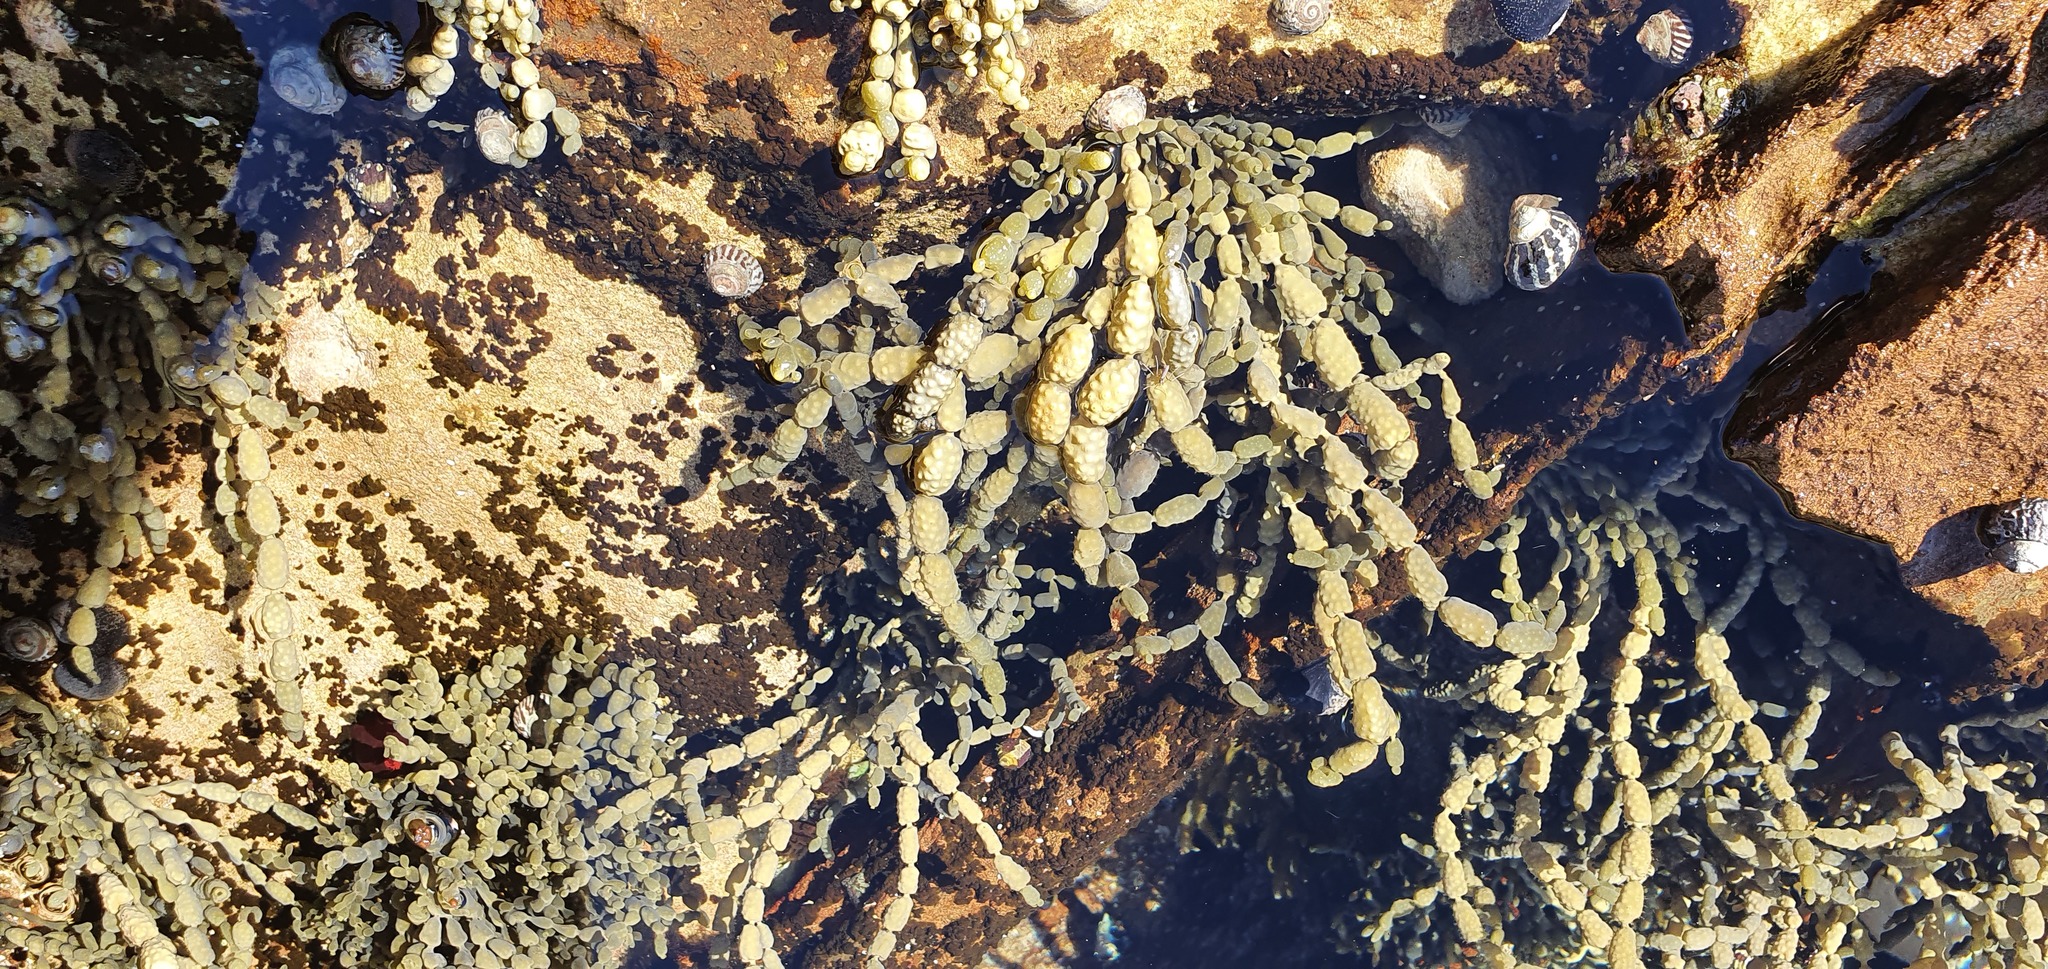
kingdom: Chromista
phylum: Ochrophyta
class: Phaeophyceae
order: Fucales
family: Hormosiraceae
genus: Hormosira
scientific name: Hormosira banksii
